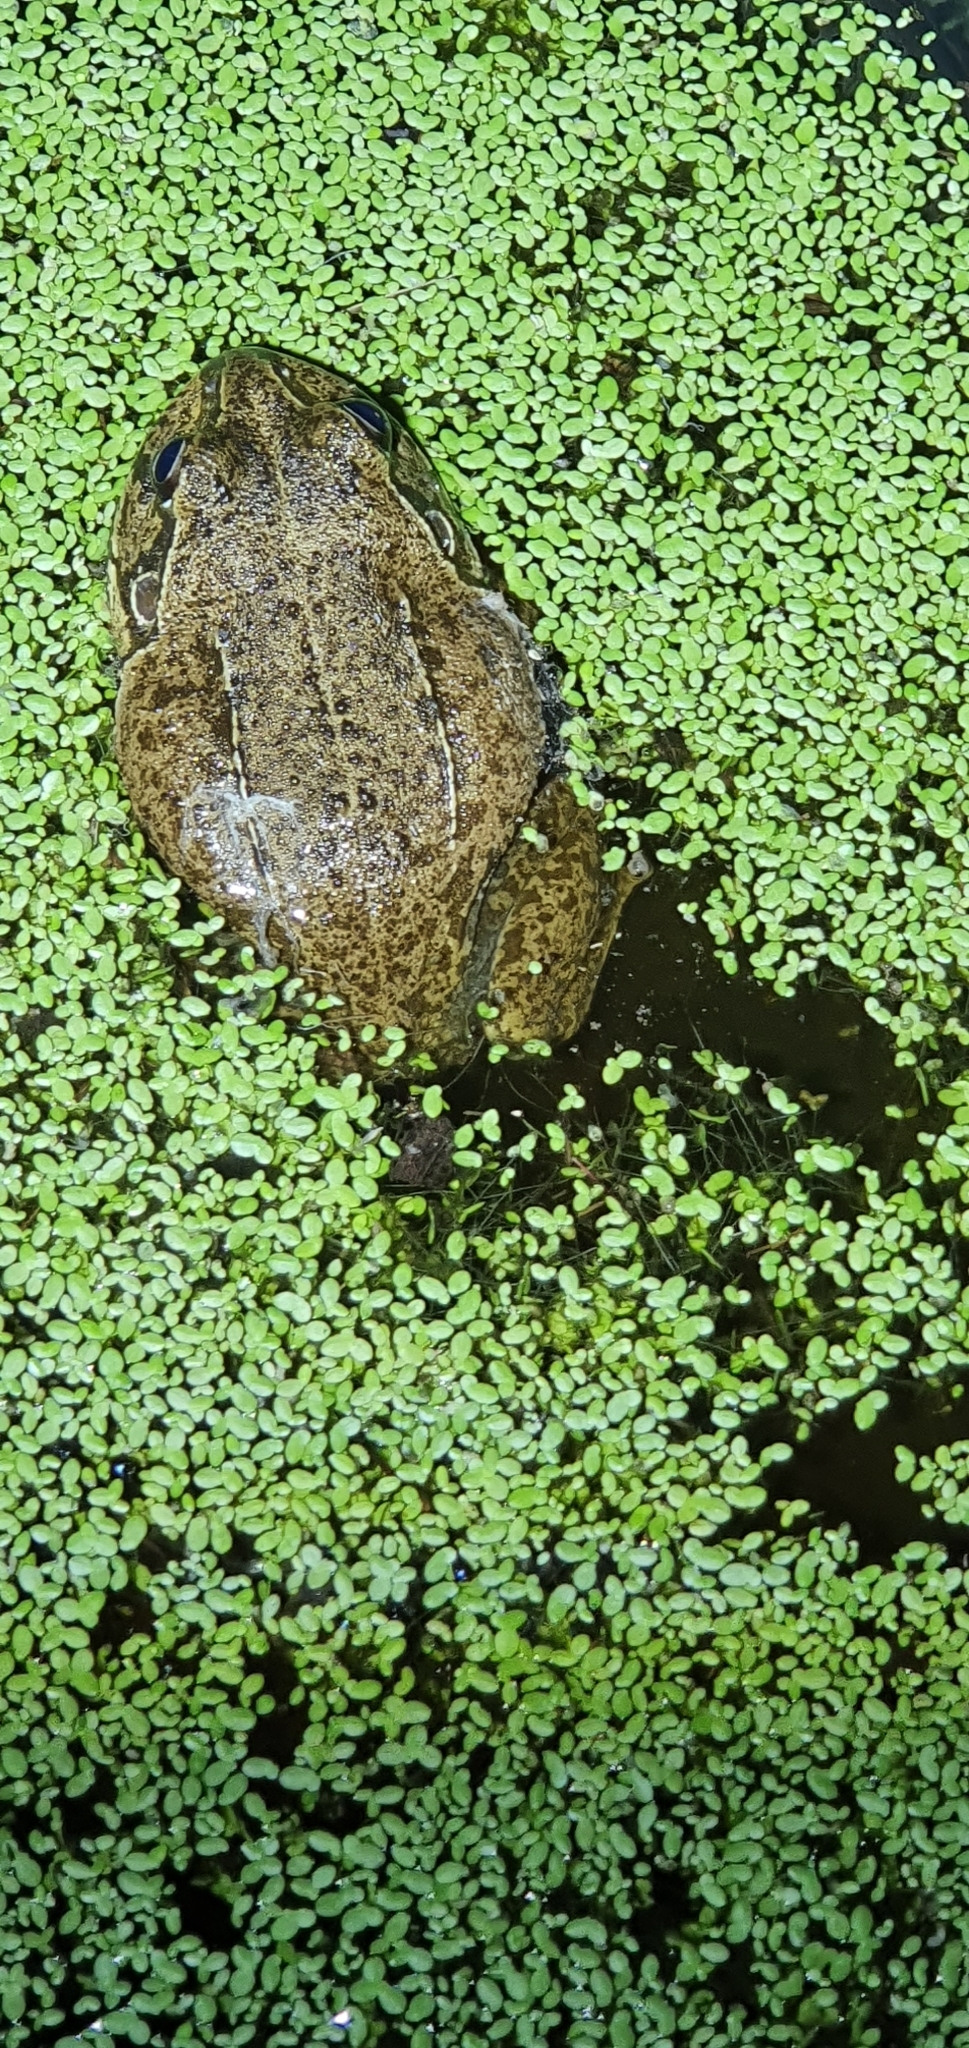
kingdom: Animalia
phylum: Chordata
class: Amphibia
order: Anura
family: Pelodryadidae
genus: Ranoidea
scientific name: Ranoidea novaehollandiae
